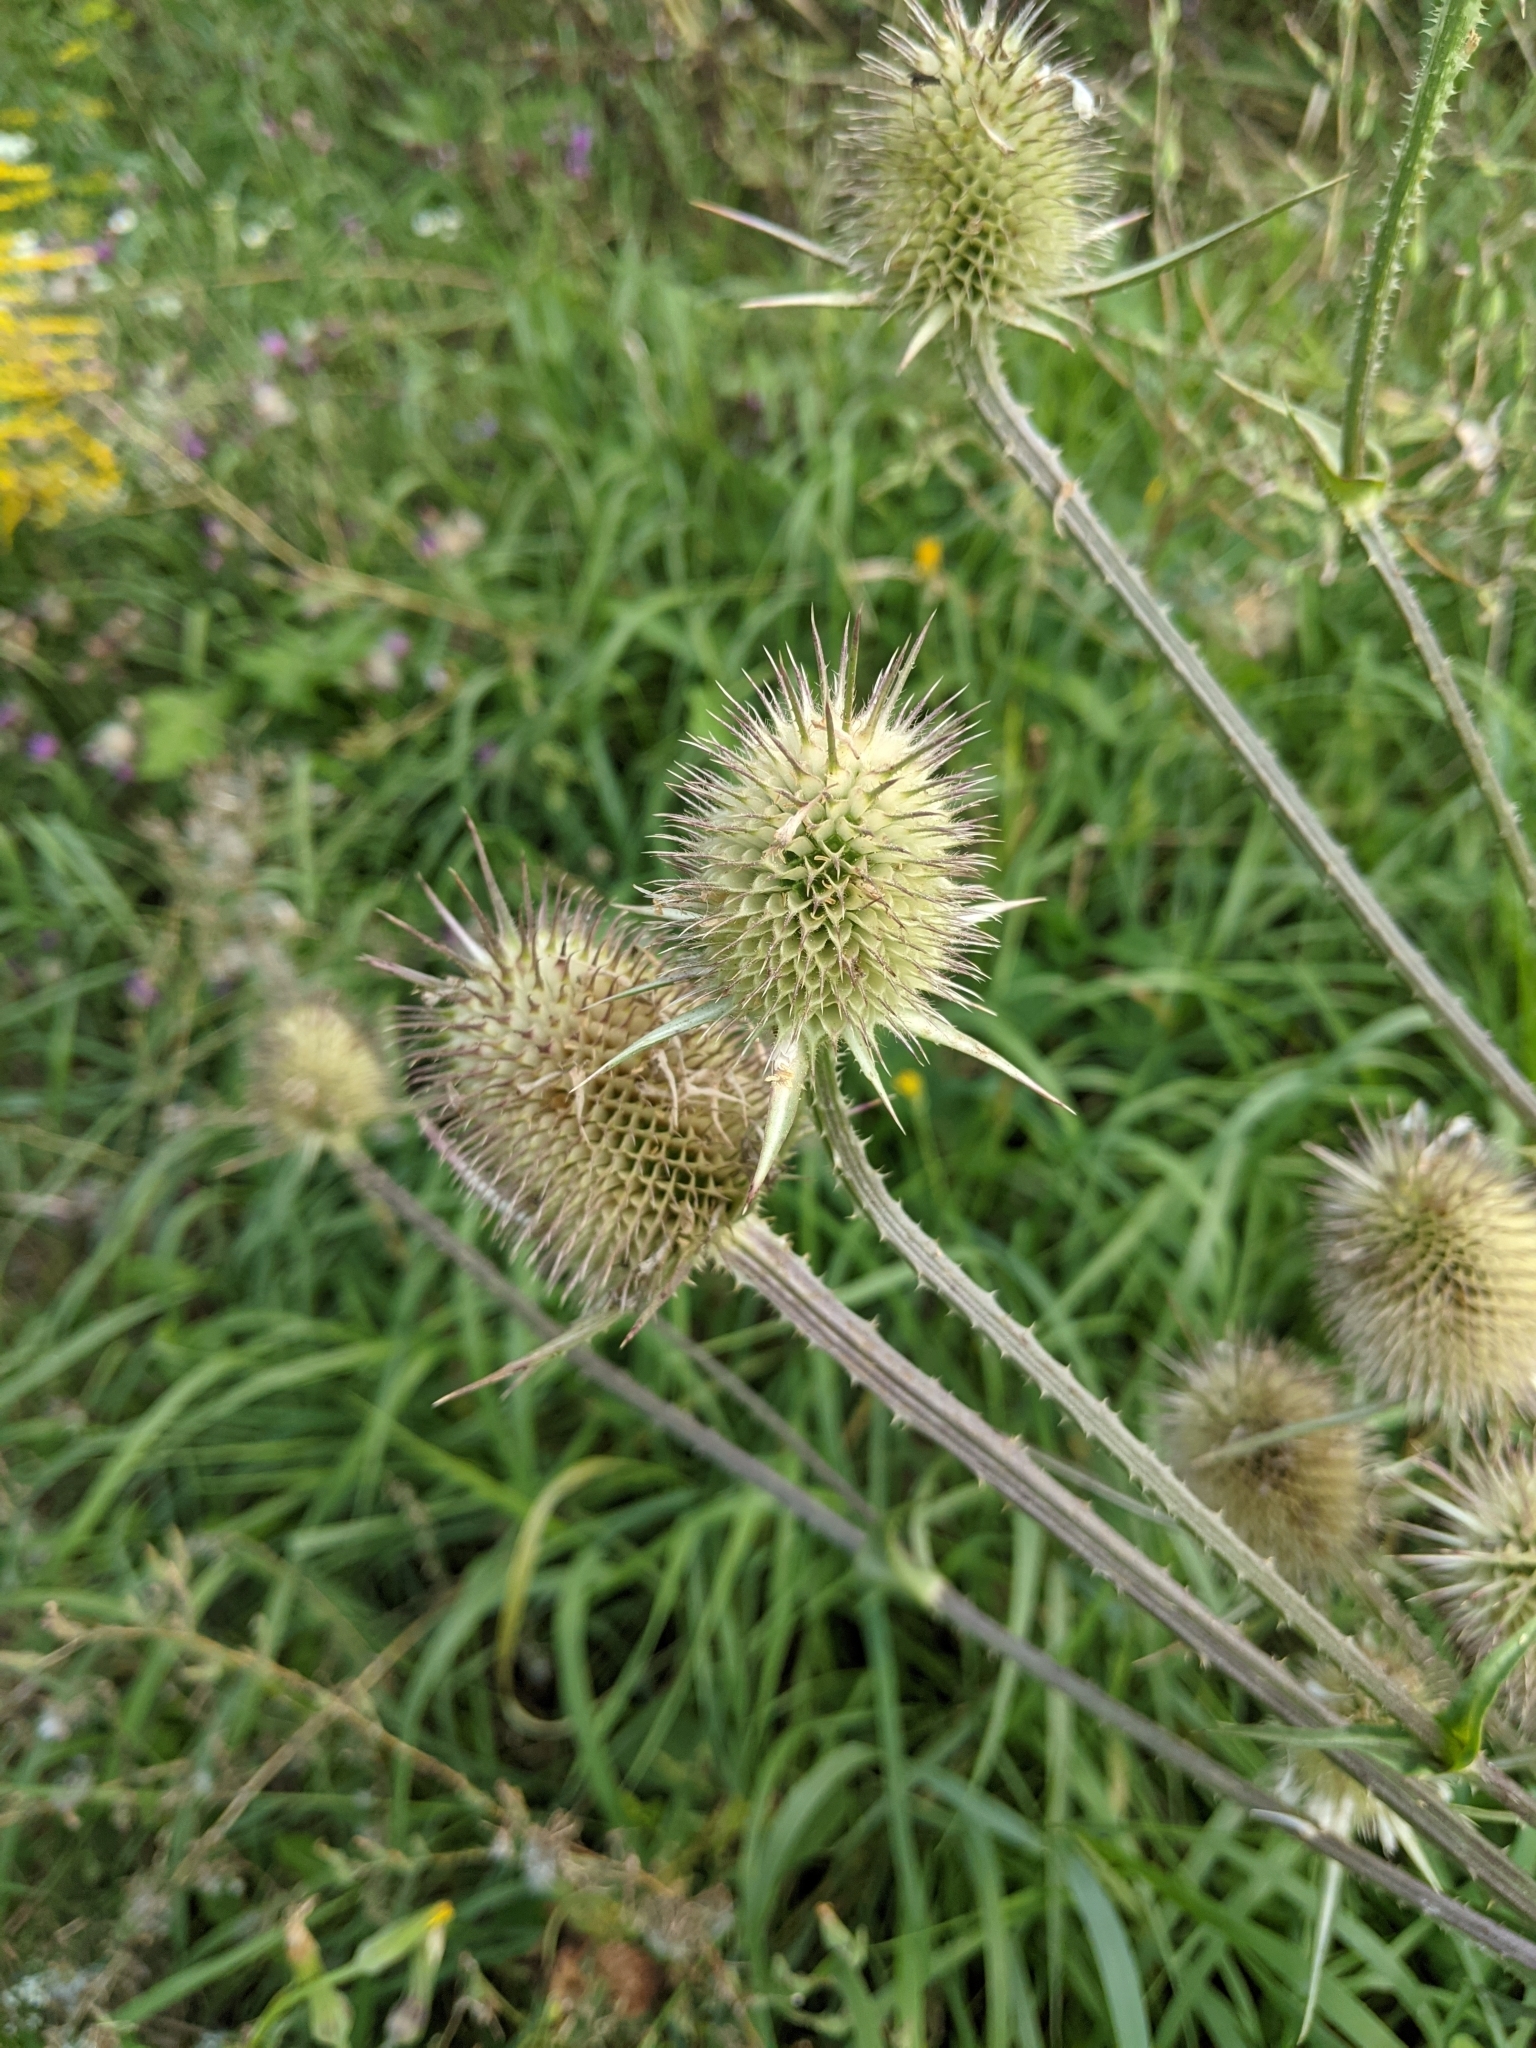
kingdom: Plantae
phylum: Tracheophyta
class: Magnoliopsida
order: Dipsacales
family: Caprifoliaceae
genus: Dipsacus
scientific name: Dipsacus laciniatus
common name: Cut-leaved teasel
